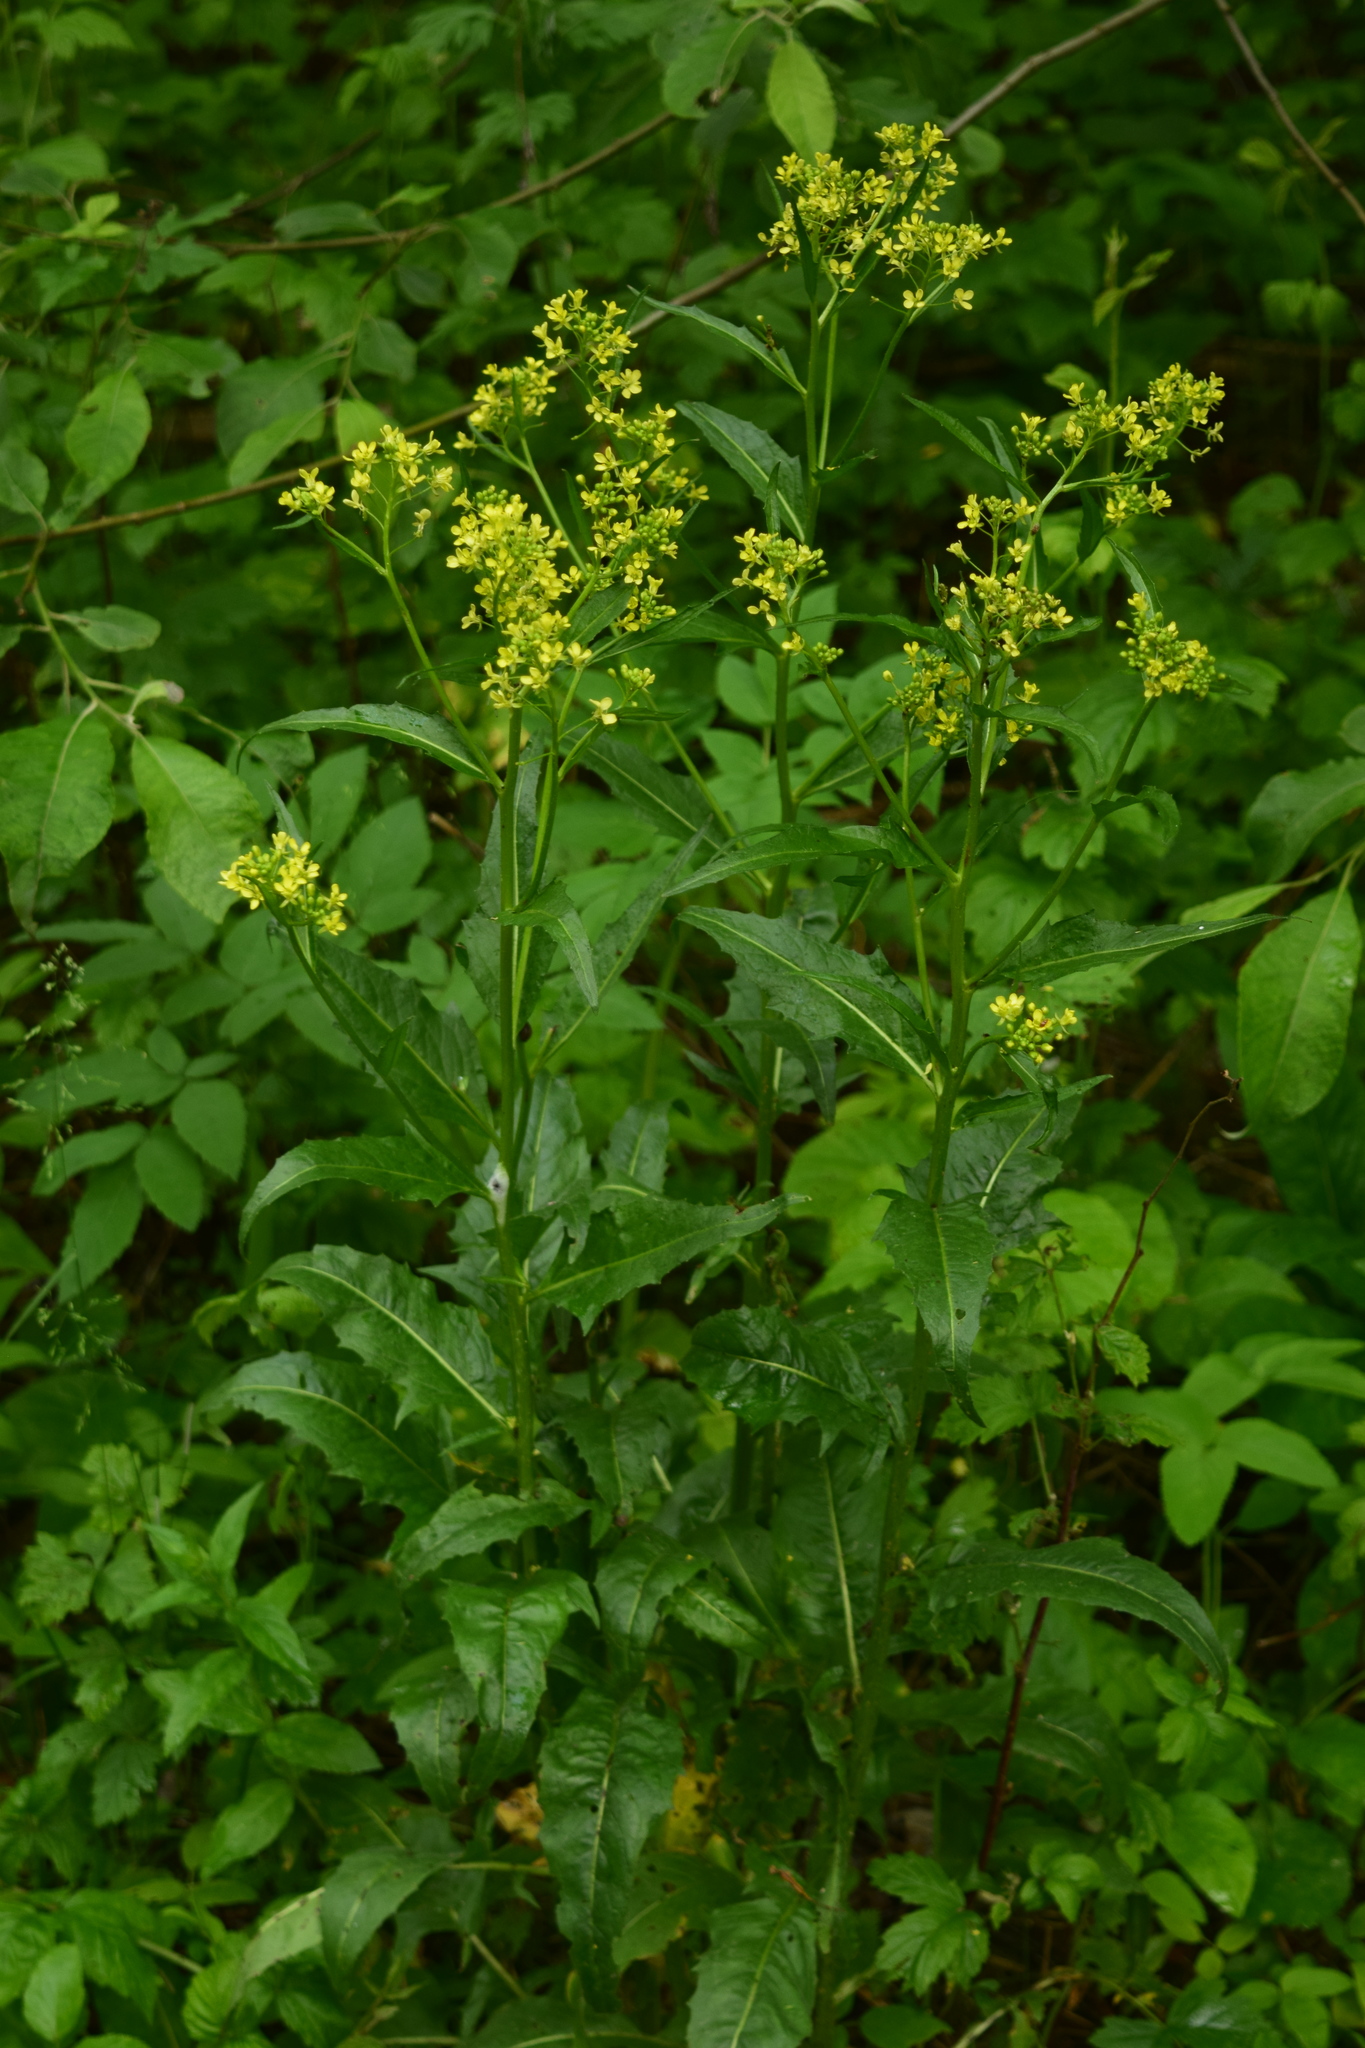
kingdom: Plantae
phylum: Tracheophyta
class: Magnoliopsida
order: Brassicales
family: Brassicaceae
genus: Bunias
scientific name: Bunias orientalis
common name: Warty-cabbage
